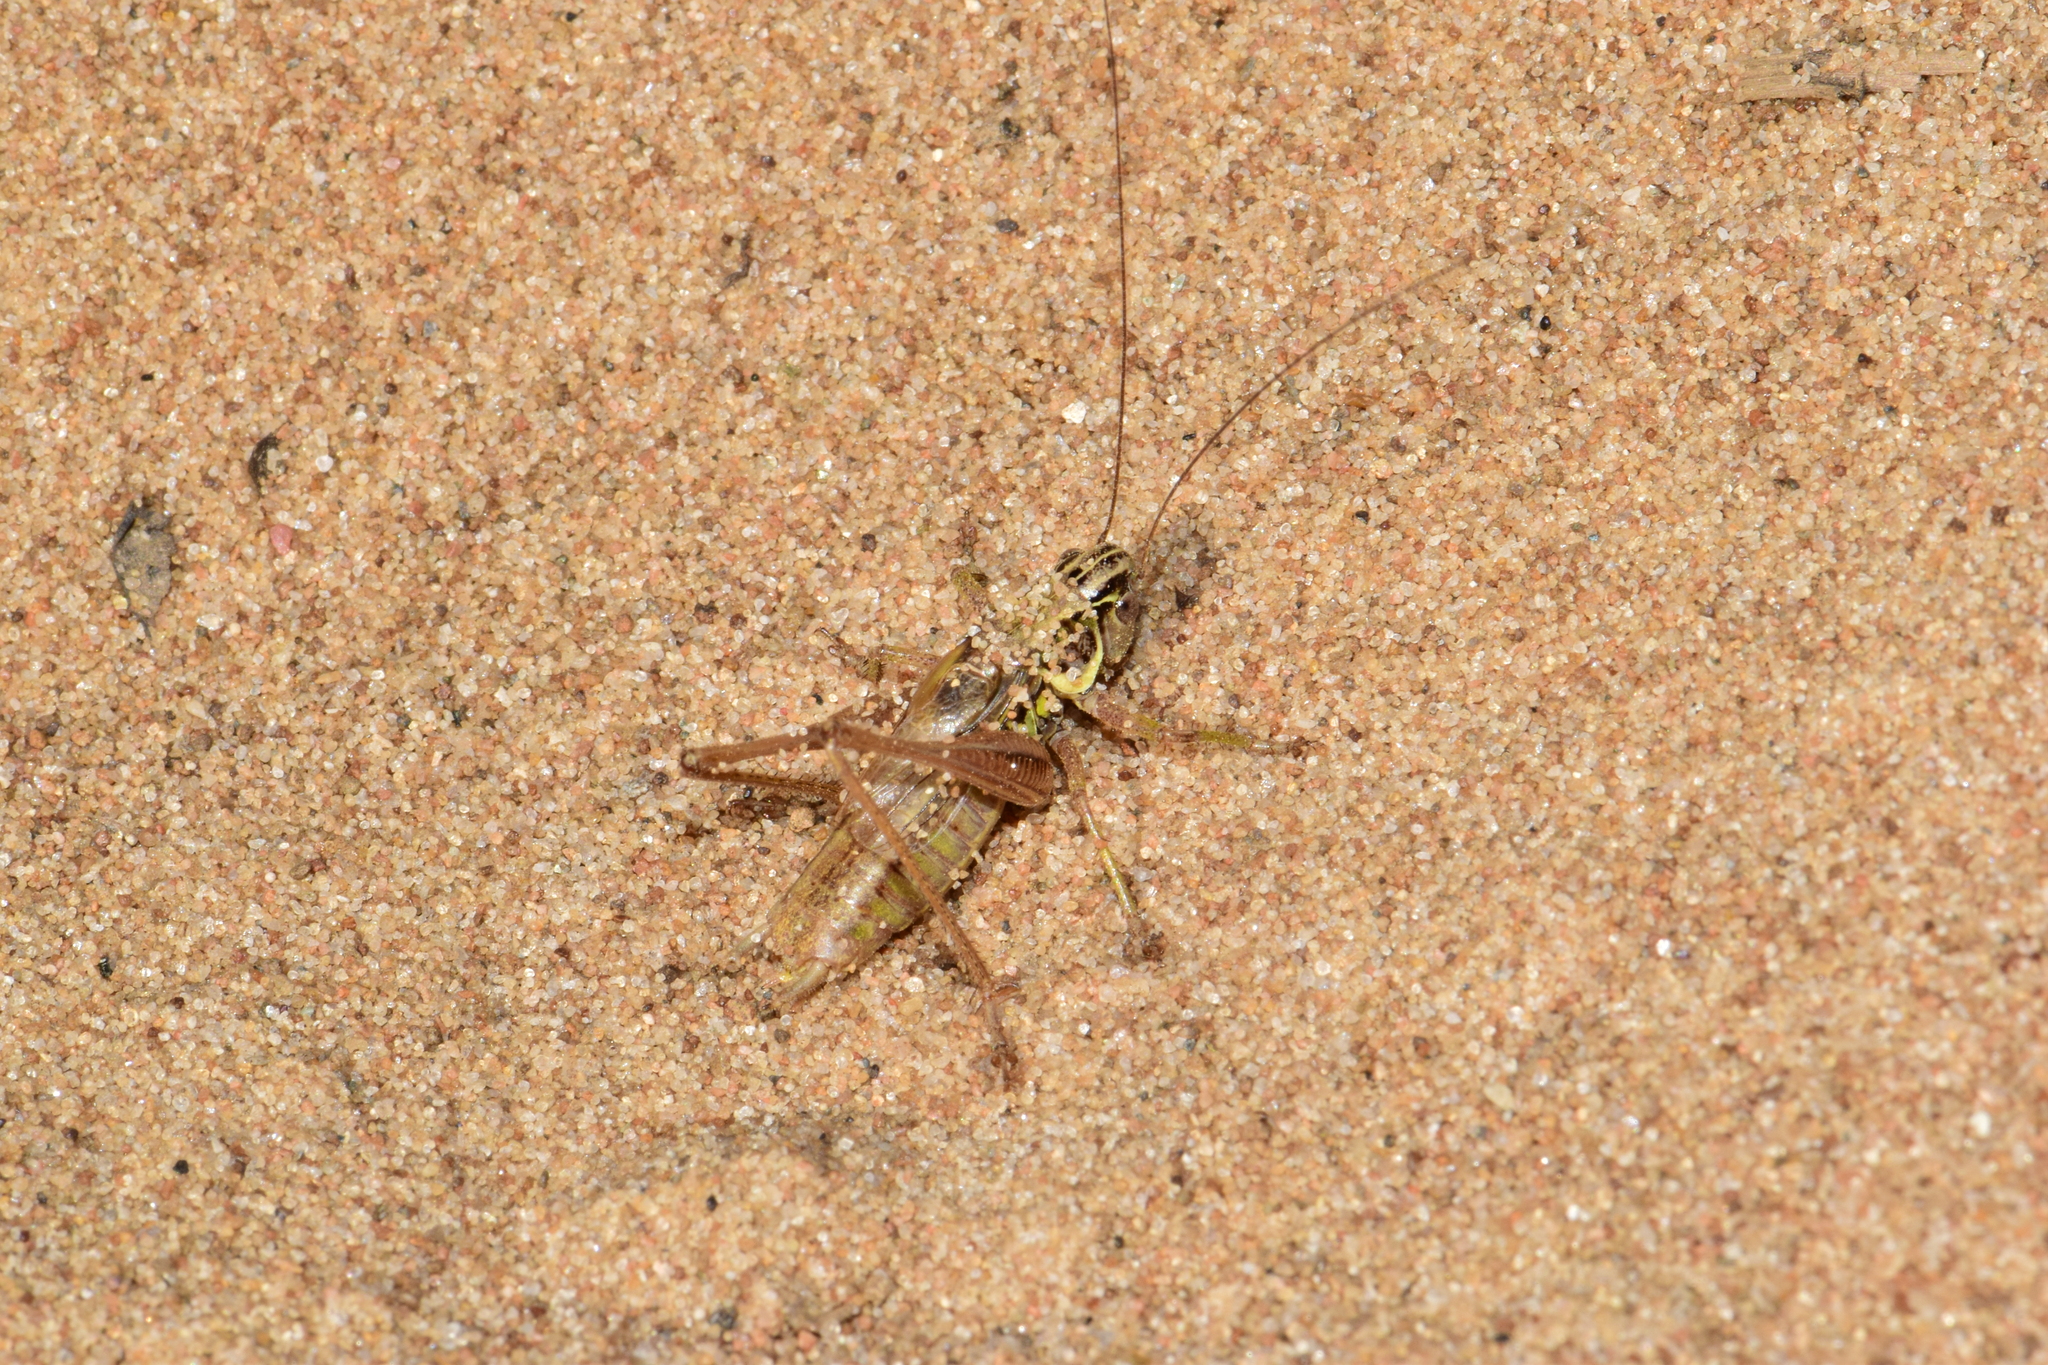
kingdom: Animalia
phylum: Arthropoda
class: Insecta
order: Orthoptera
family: Tettigoniidae
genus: Roeseliana
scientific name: Roeseliana roeselii
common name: Roesel's bush cricket
